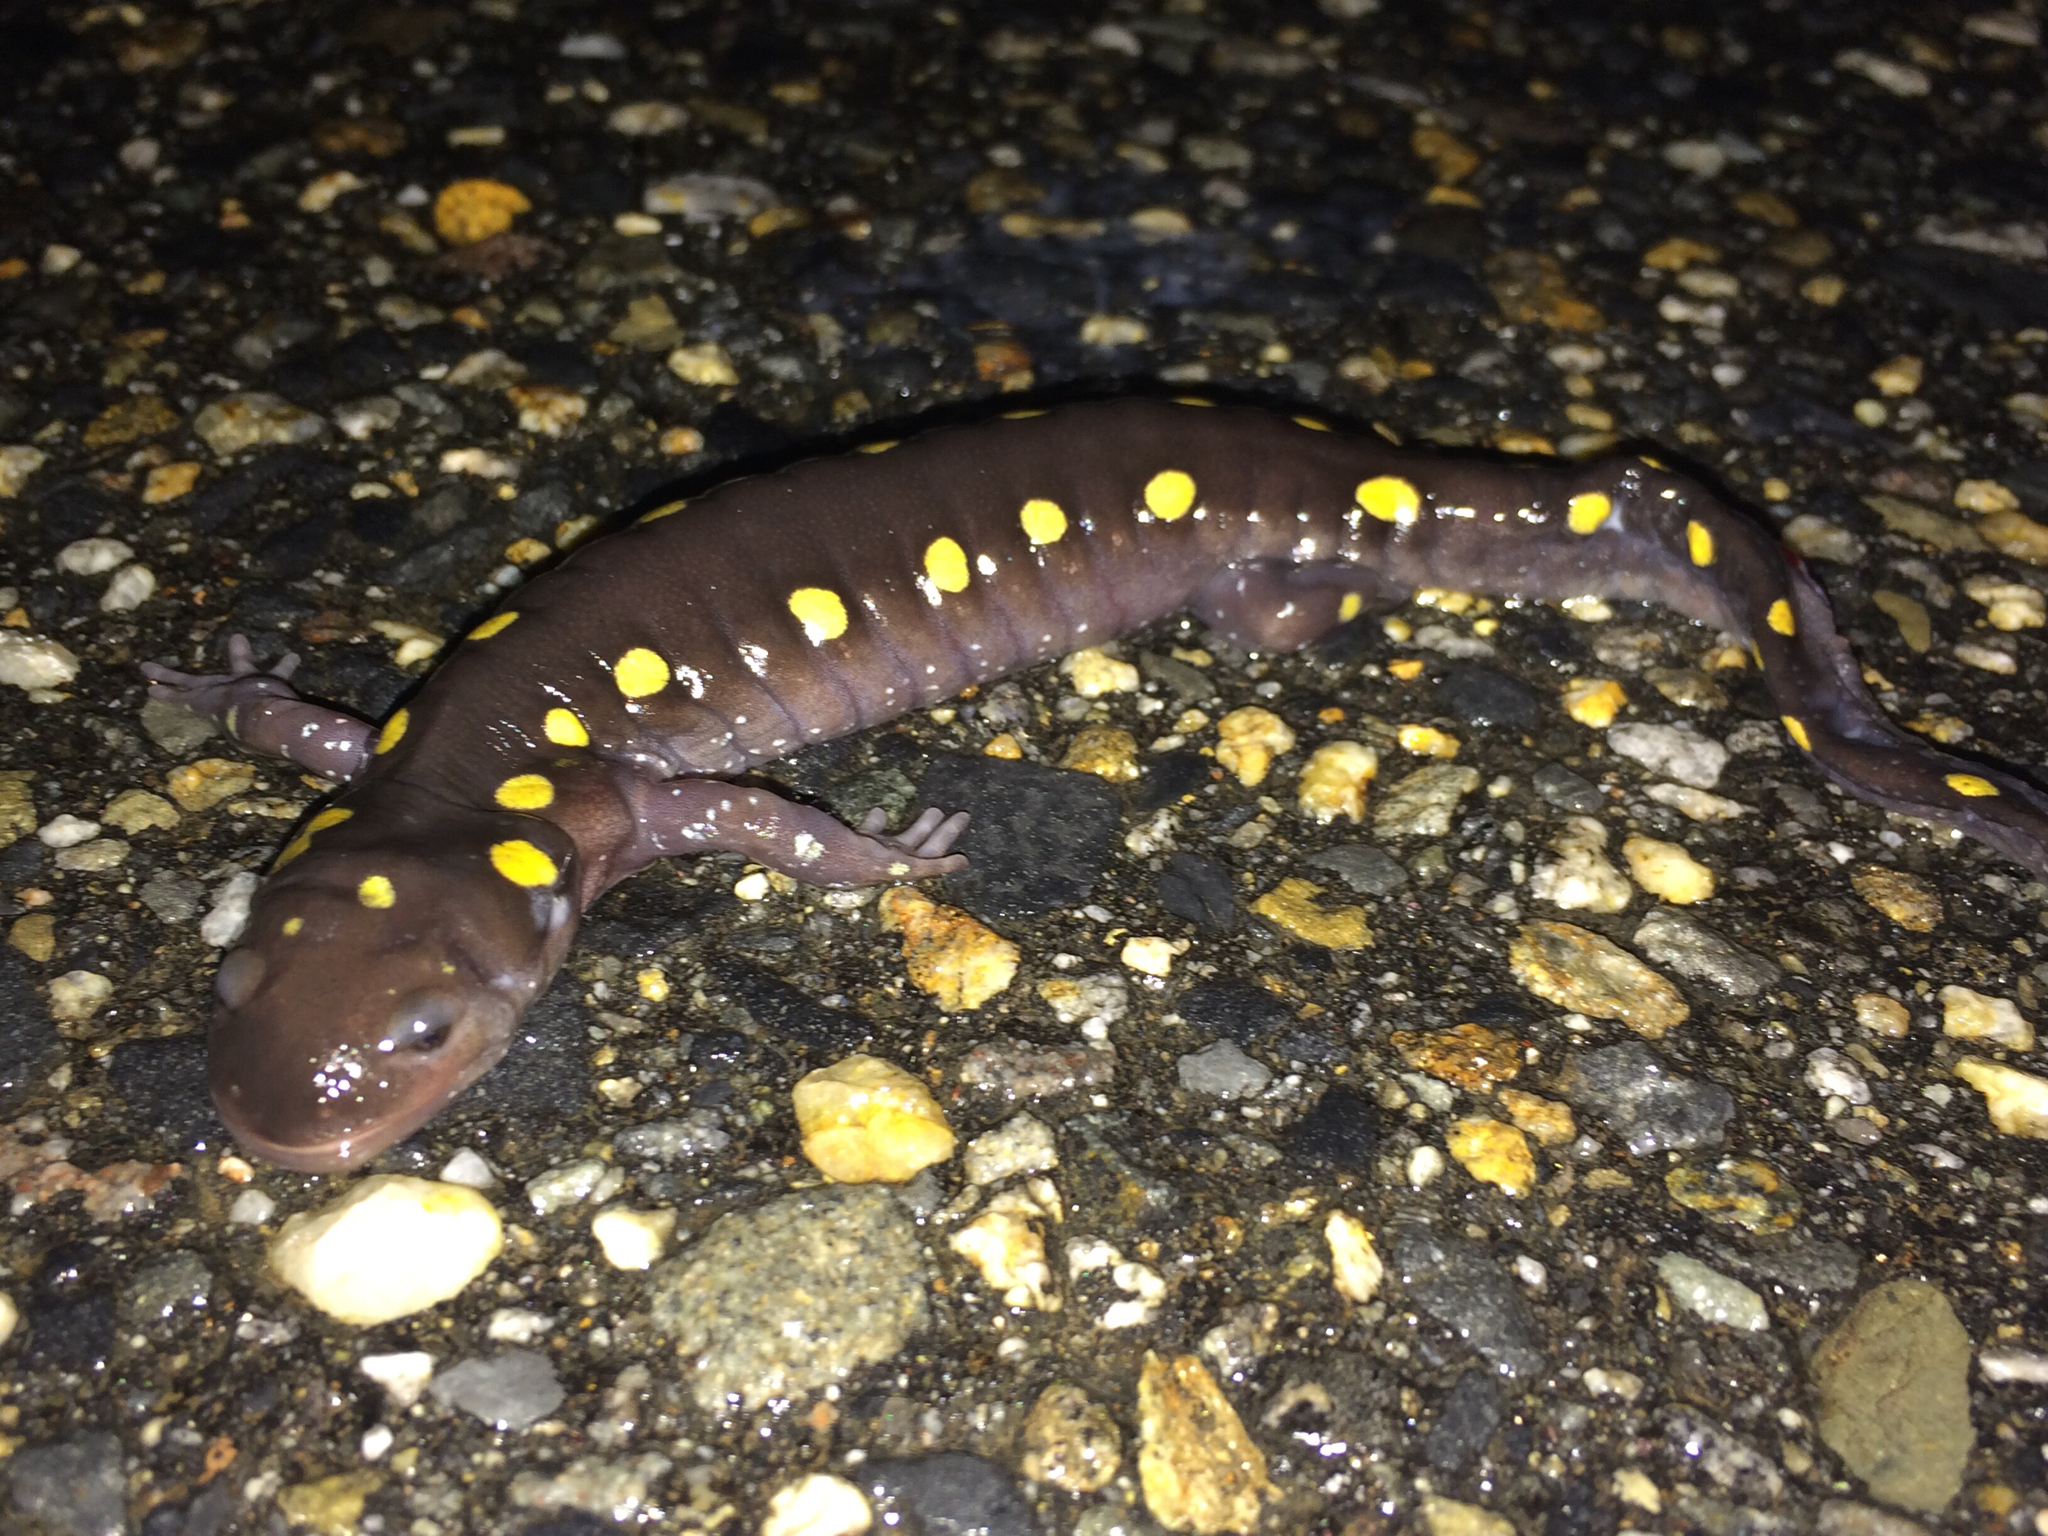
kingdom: Animalia
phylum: Chordata
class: Amphibia
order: Caudata
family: Ambystomatidae
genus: Ambystoma
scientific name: Ambystoma maculatum
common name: Spotted salamander
